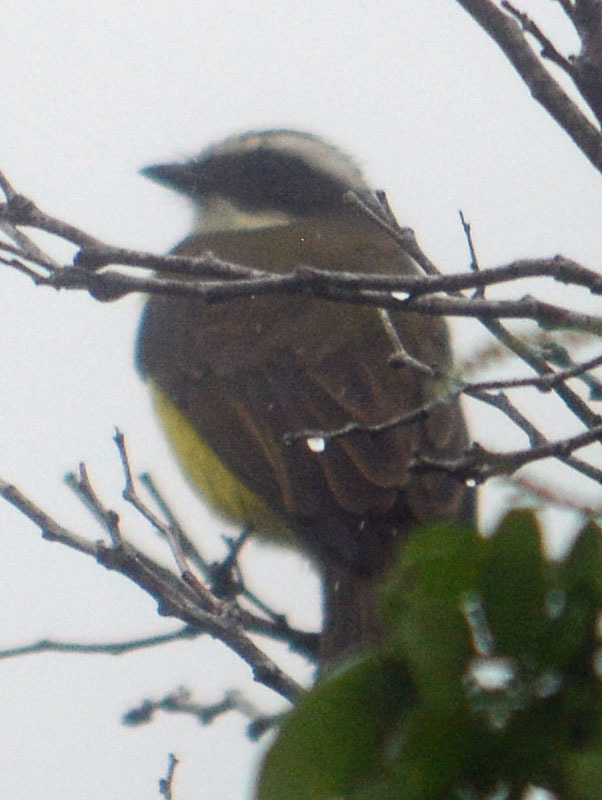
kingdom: Animalia
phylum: Chordata
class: Aves
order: Passeriformes
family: Tyrannidae
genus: Myiozetetes
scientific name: Myiozetetes similis
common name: Social flycatcher
